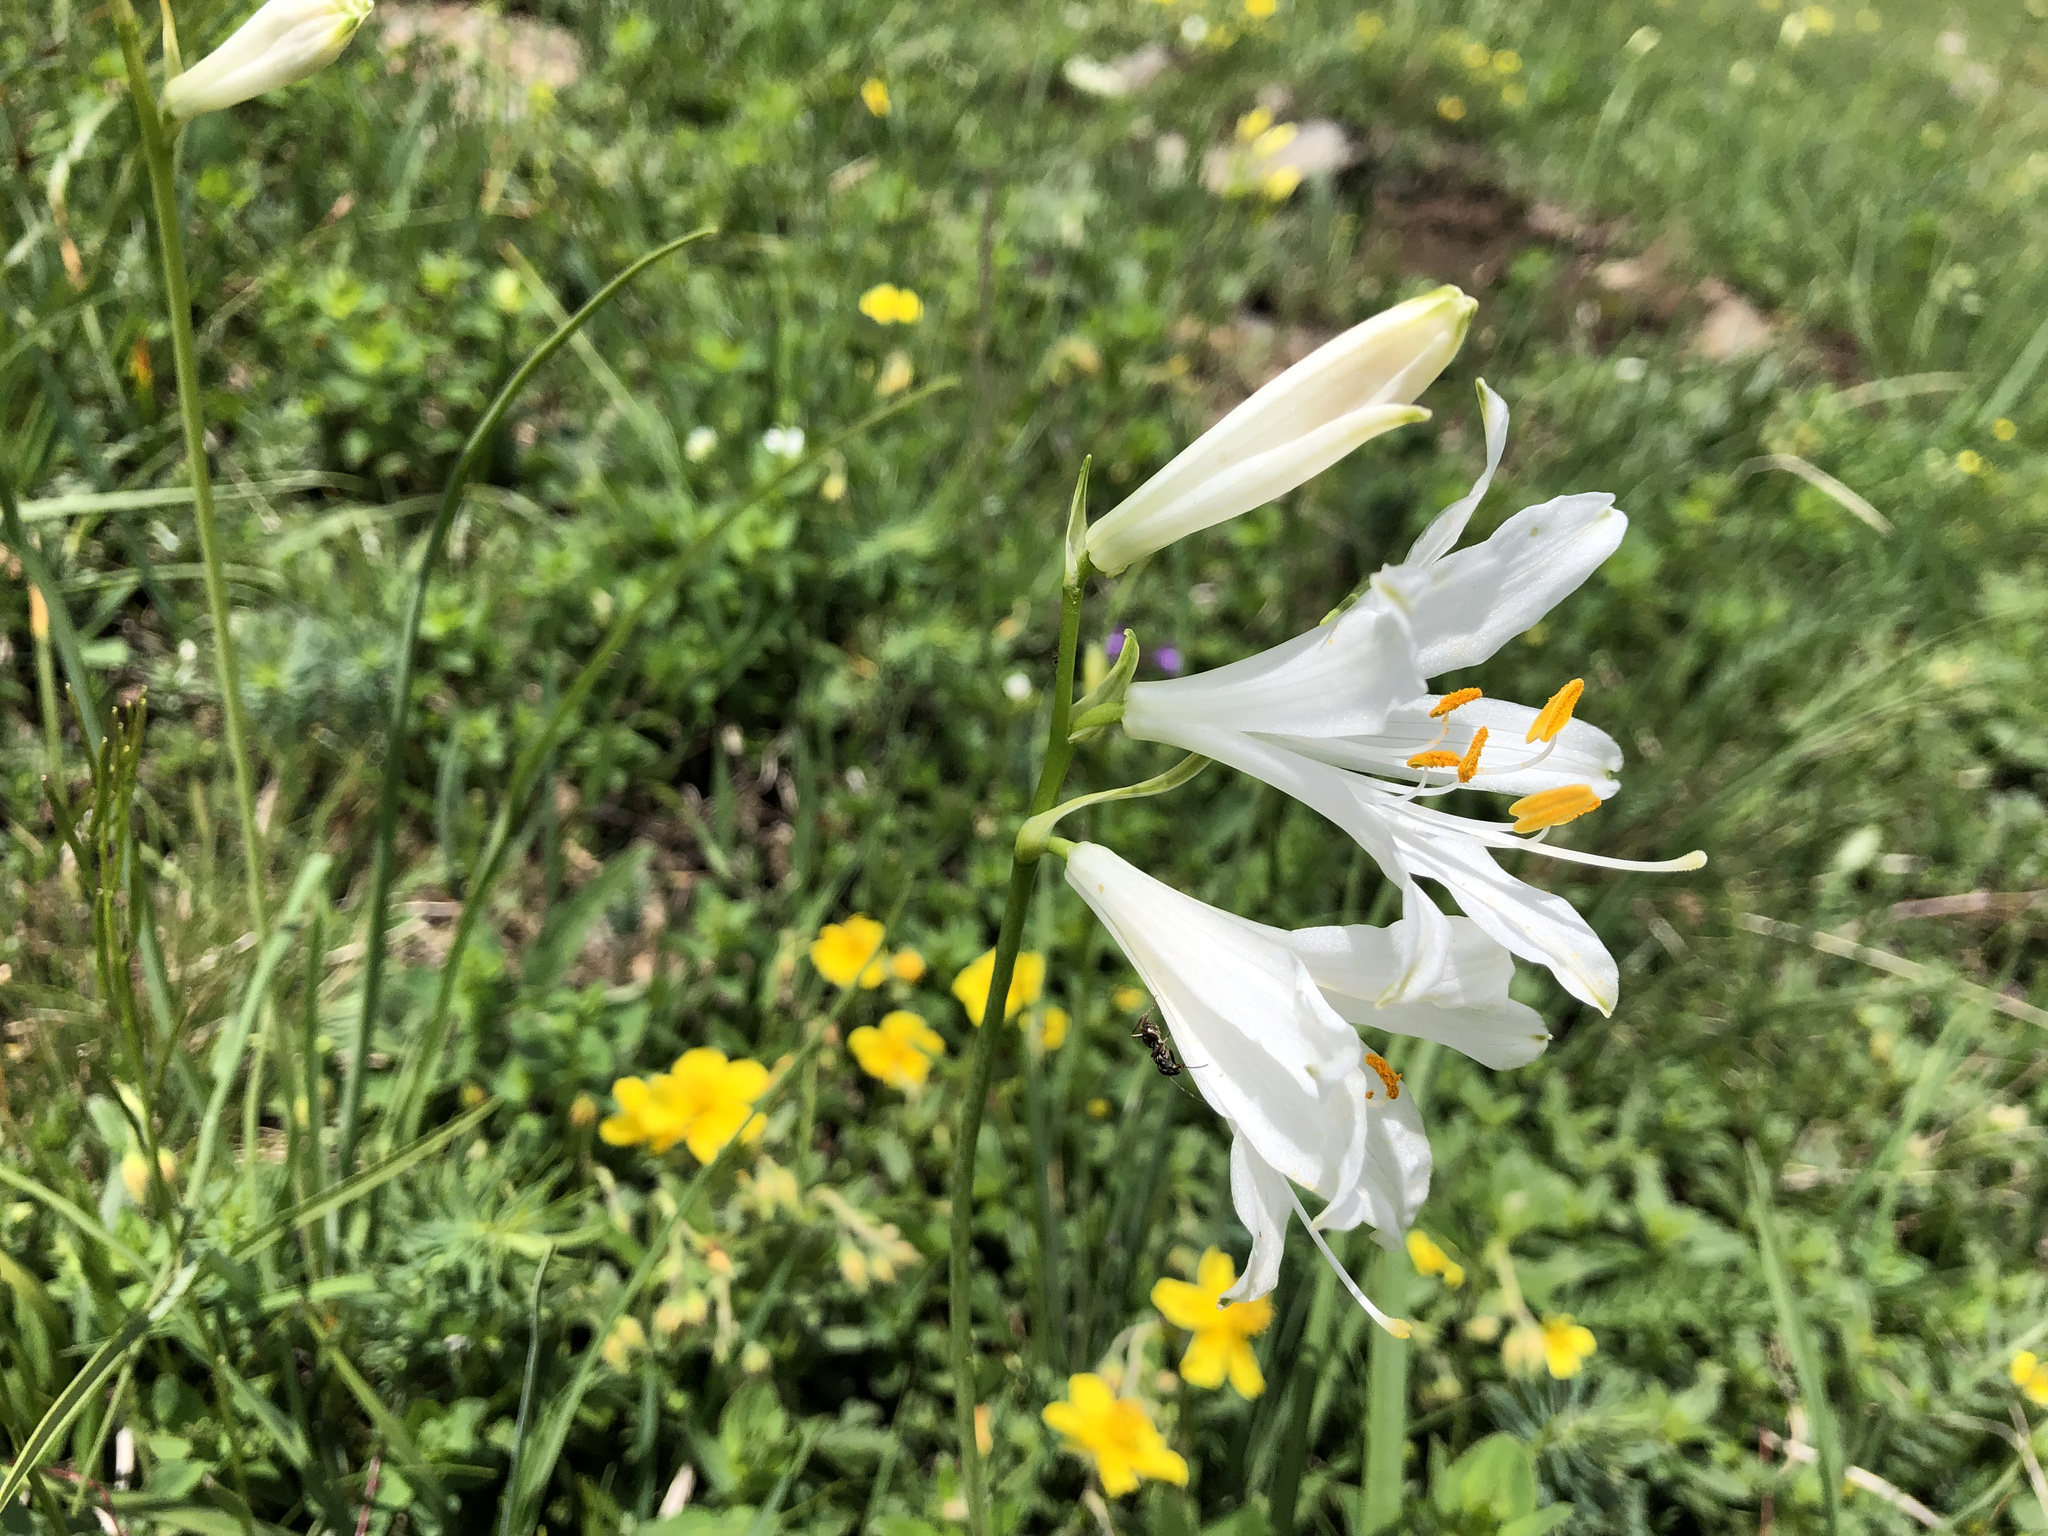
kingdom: Plantae
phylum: Tracheophyta
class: Liliopsida
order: Asparagales
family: Asparagaceae
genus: Paradisea
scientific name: Paradisea liliastrum
